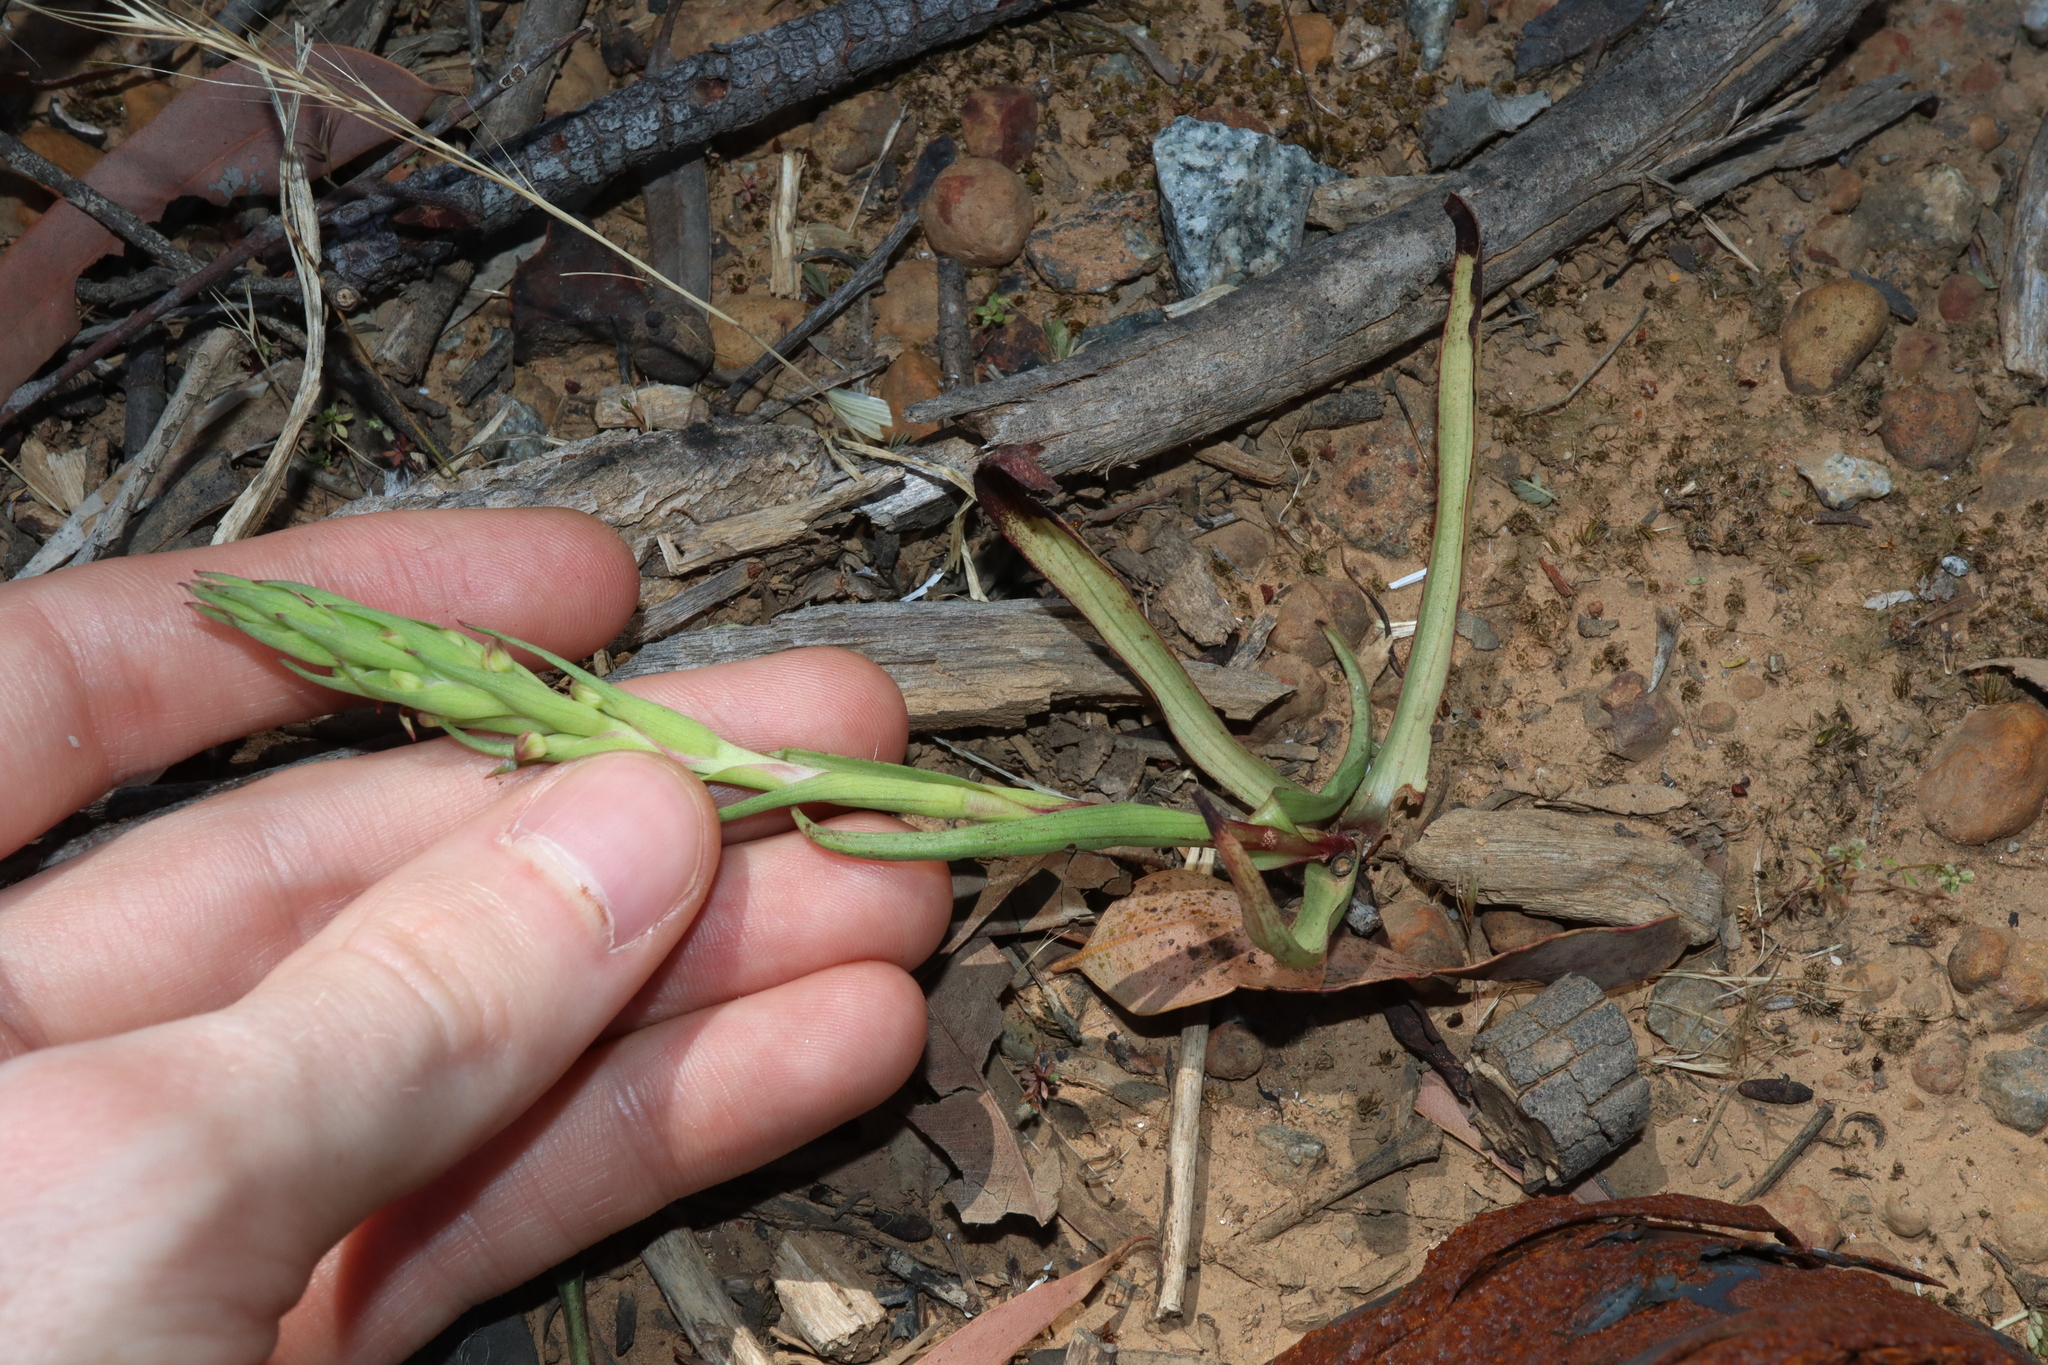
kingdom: Plantae
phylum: Tracheophyta
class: Liliopsida
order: Asparagales
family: Orchidaceae
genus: Disa
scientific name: Disa bracteata
